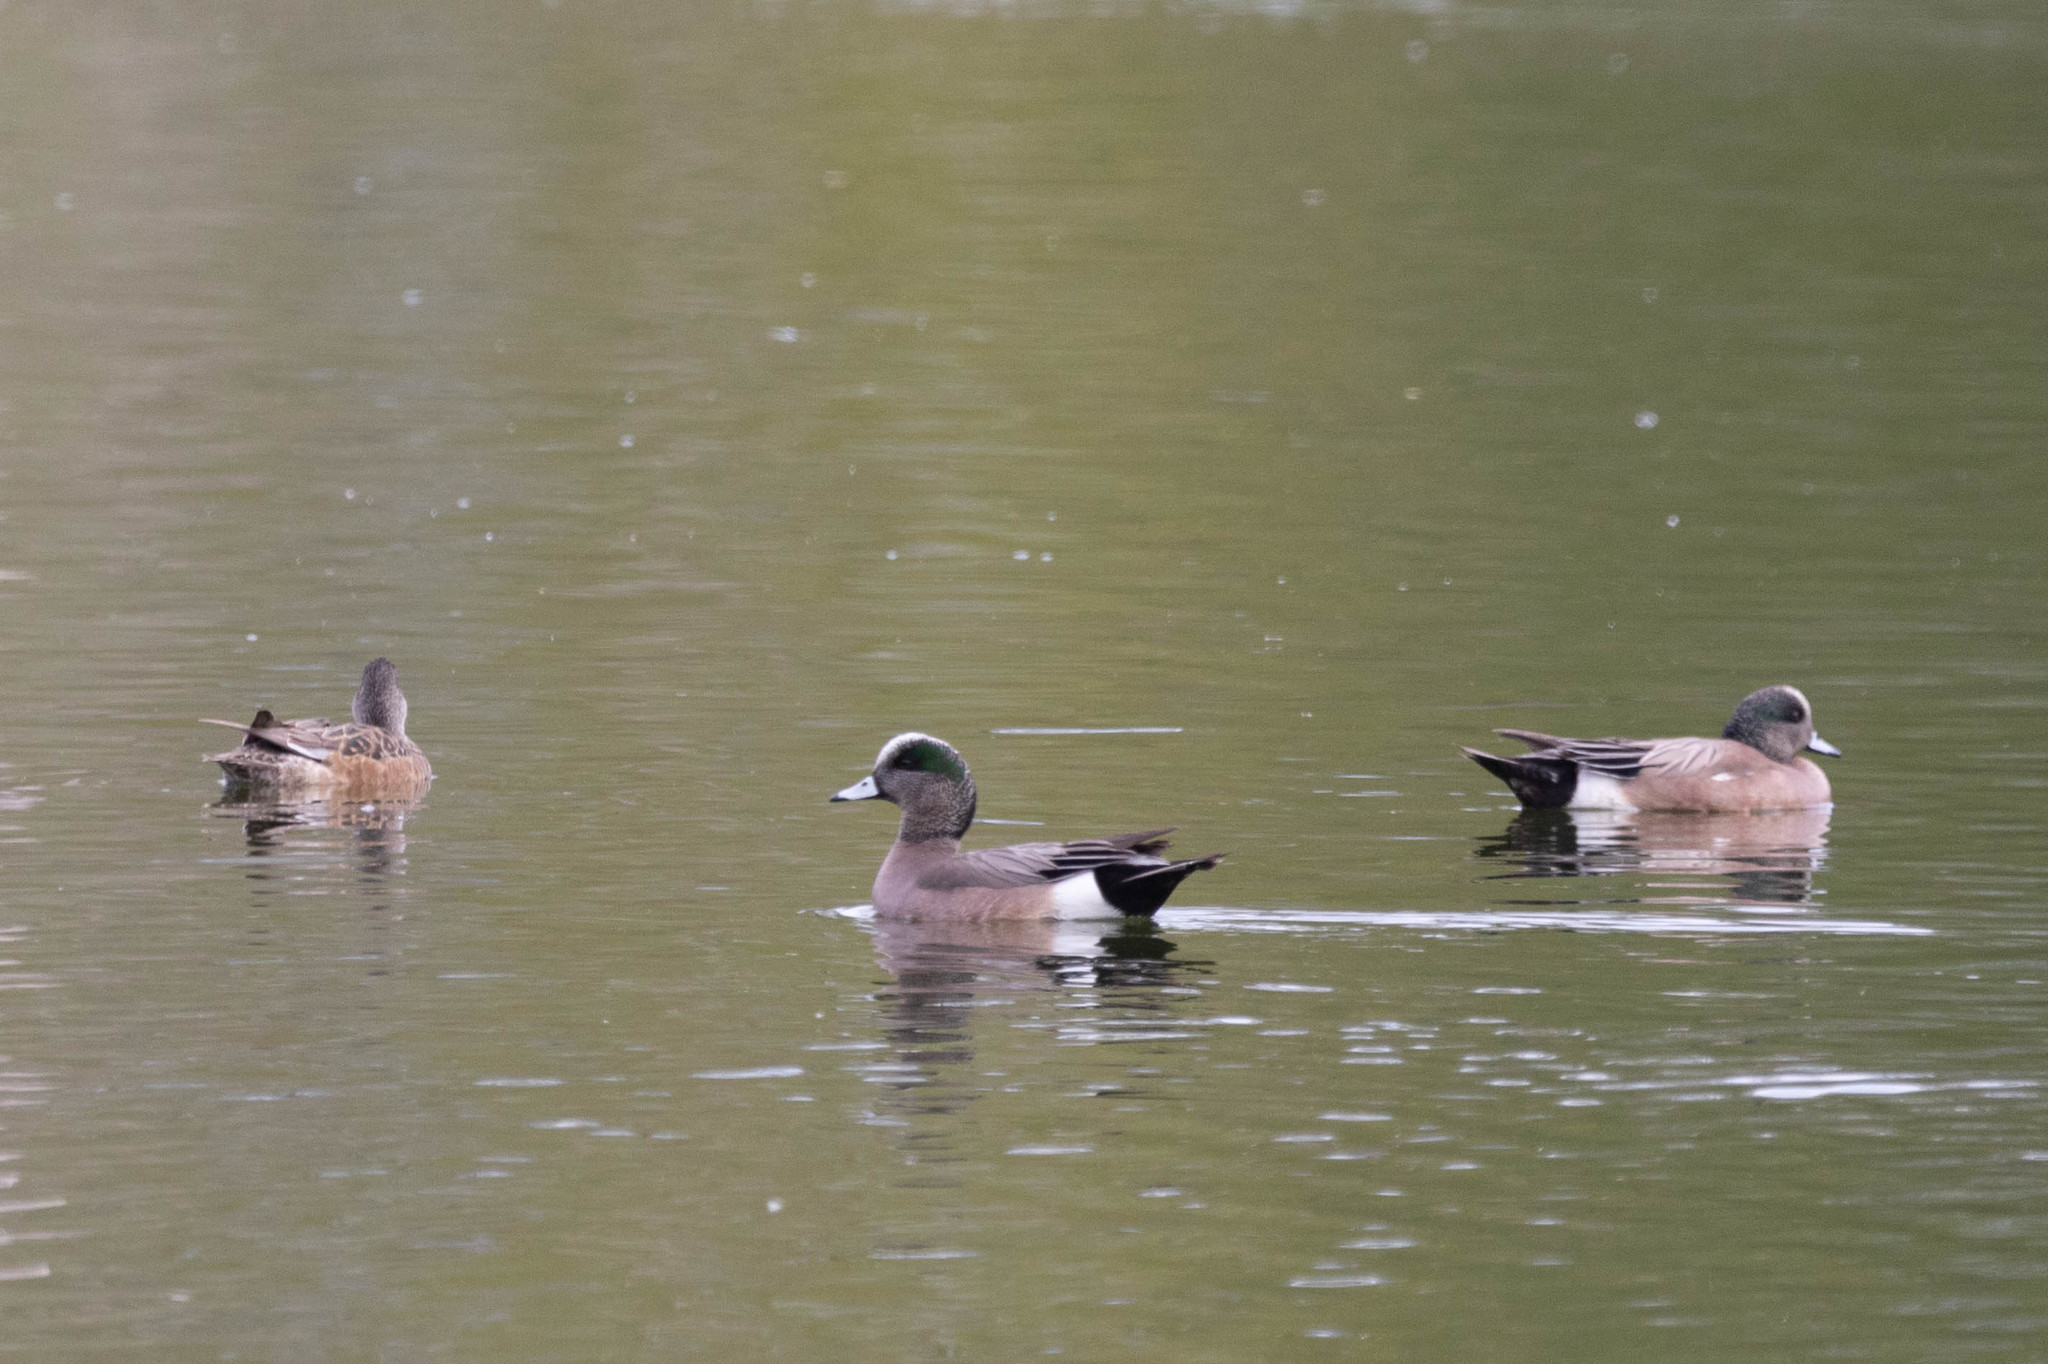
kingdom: Animalia
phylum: Chordata
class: Aves
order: Anseriformes
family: Anatidae
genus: Mareca
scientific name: Mareca americana
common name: American wigeon
